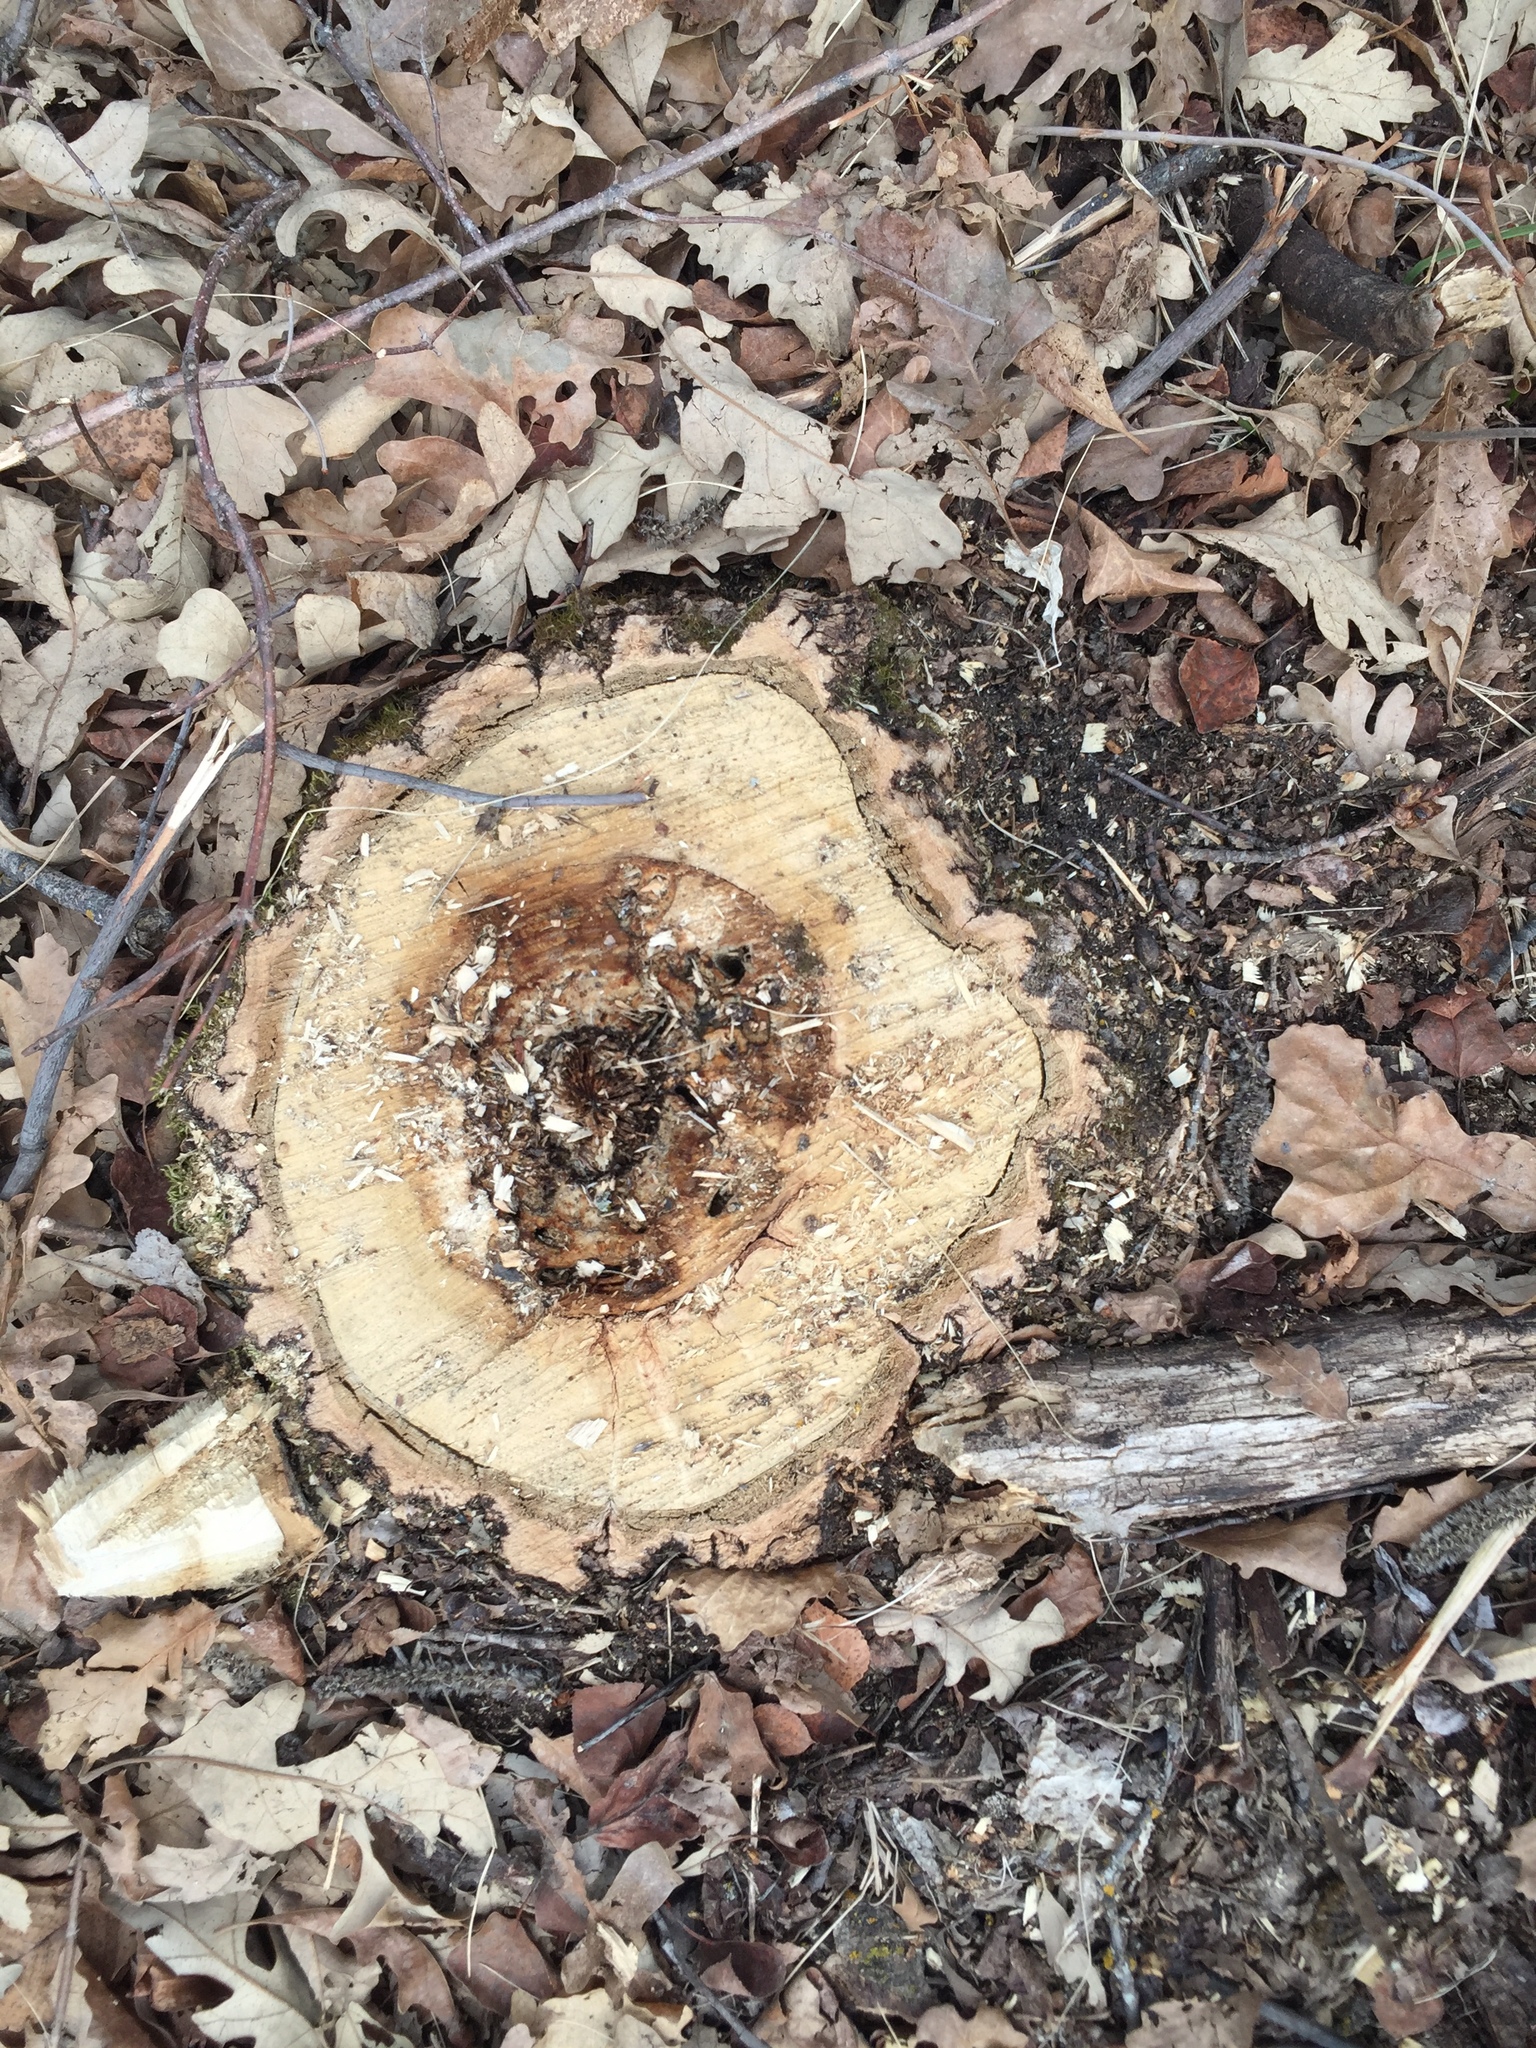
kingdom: Plantae
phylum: Tracheophyta
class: Magnoliopsida
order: Fagales
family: Fagaceae
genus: Quercus
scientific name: Quercus macrocarpa
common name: Bur oak
